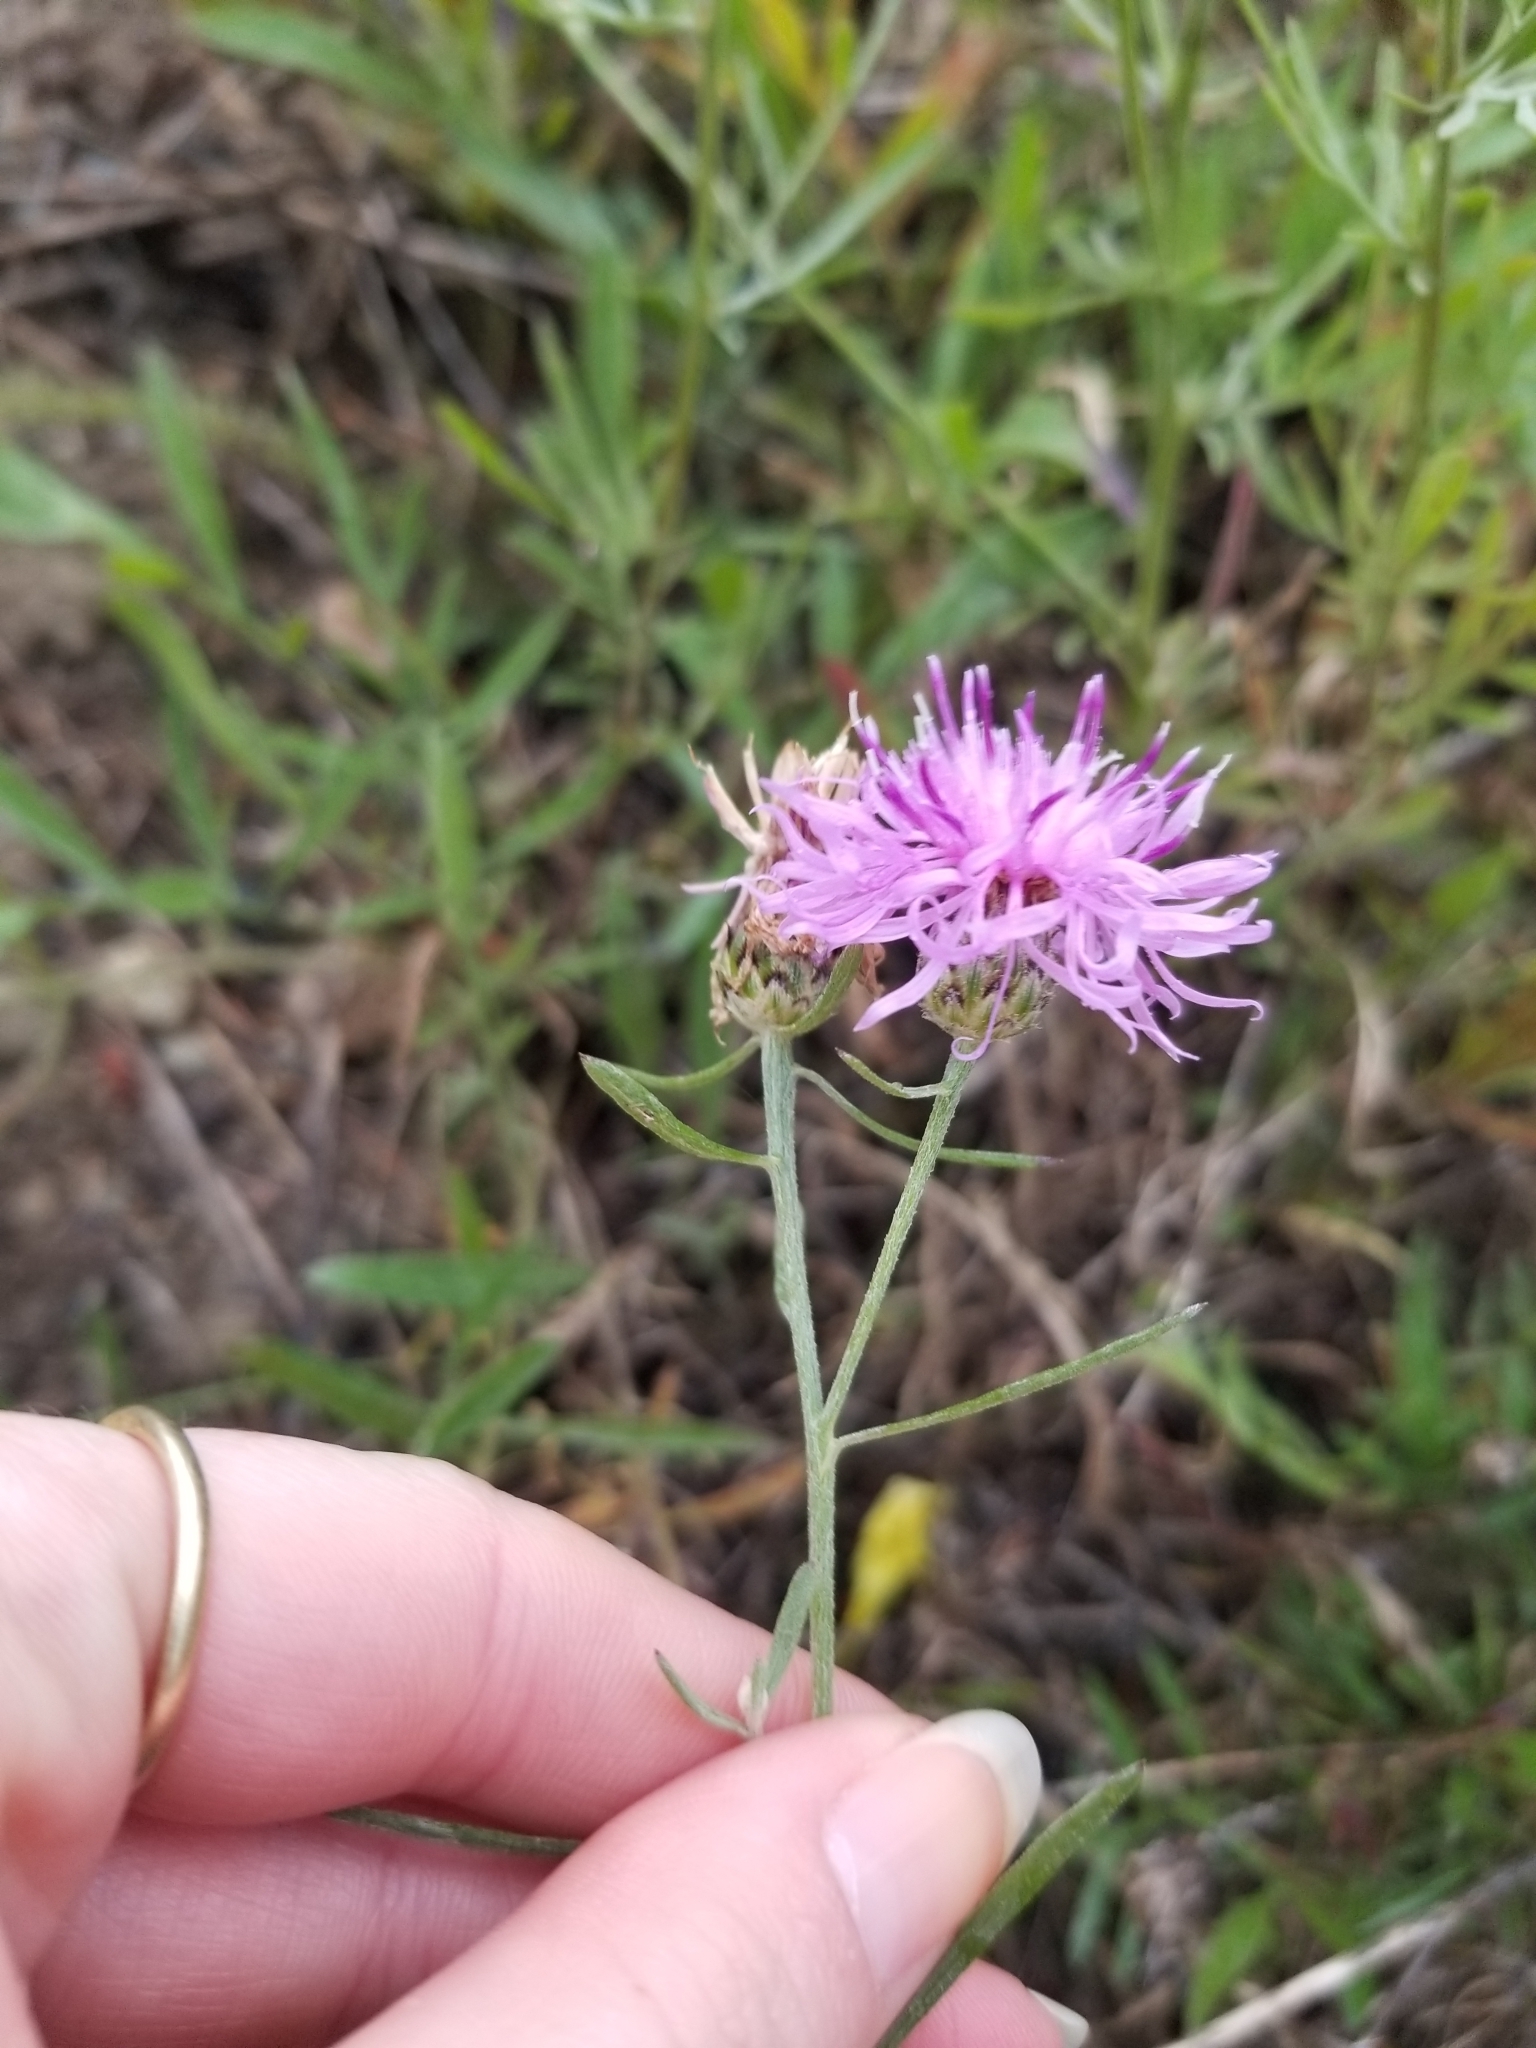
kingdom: Plantae
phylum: Tracheophyta
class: Magnoliopsida
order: Asterales
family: Asteraceae
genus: Centaurea
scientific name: Centaurea stoebe
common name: Spotted knapweed
